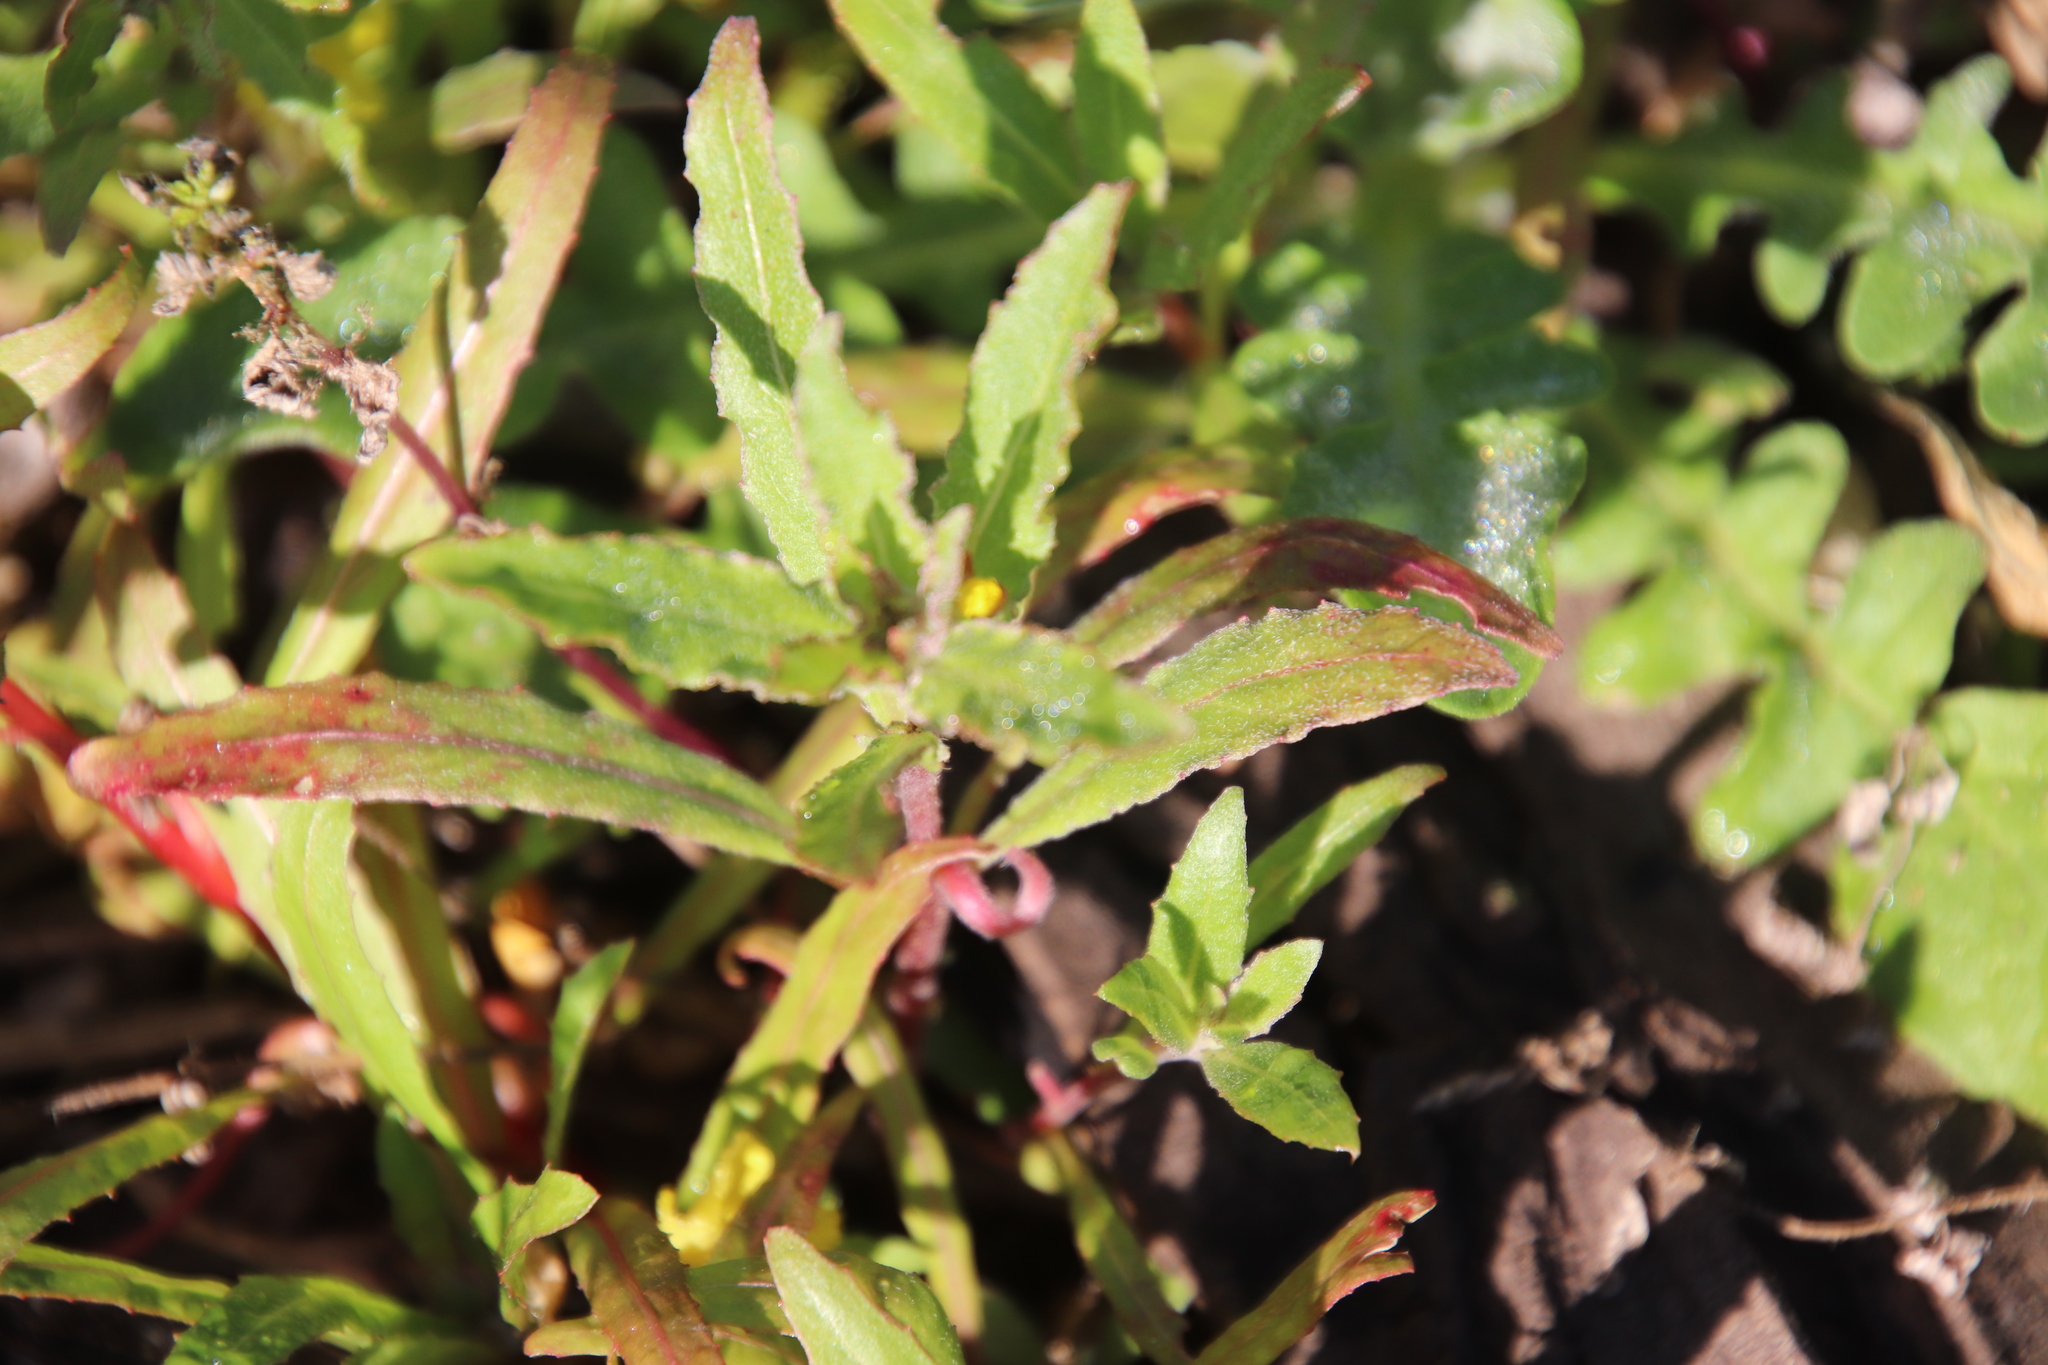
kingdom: Plantae
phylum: Tracheophyta
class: Magnoliopsida
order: Myrtales
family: Onagraceae
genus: Camissoniopsis
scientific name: Camissoniopsis bistorta
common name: Southern suncup
